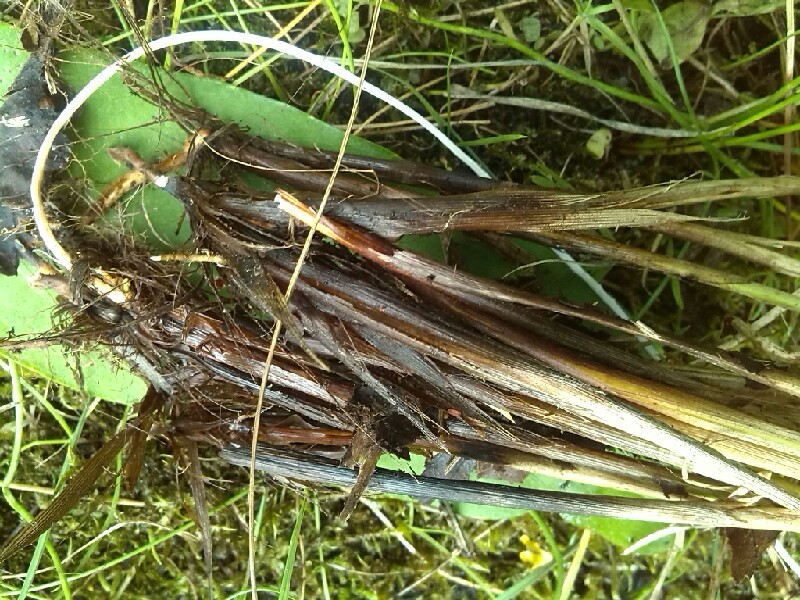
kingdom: Plantae
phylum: Tracheophyta
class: Liliopsida
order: Poales
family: Cyperaceae
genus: Carex
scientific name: Carex appropinquata
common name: Fibrous tussock-sedge
